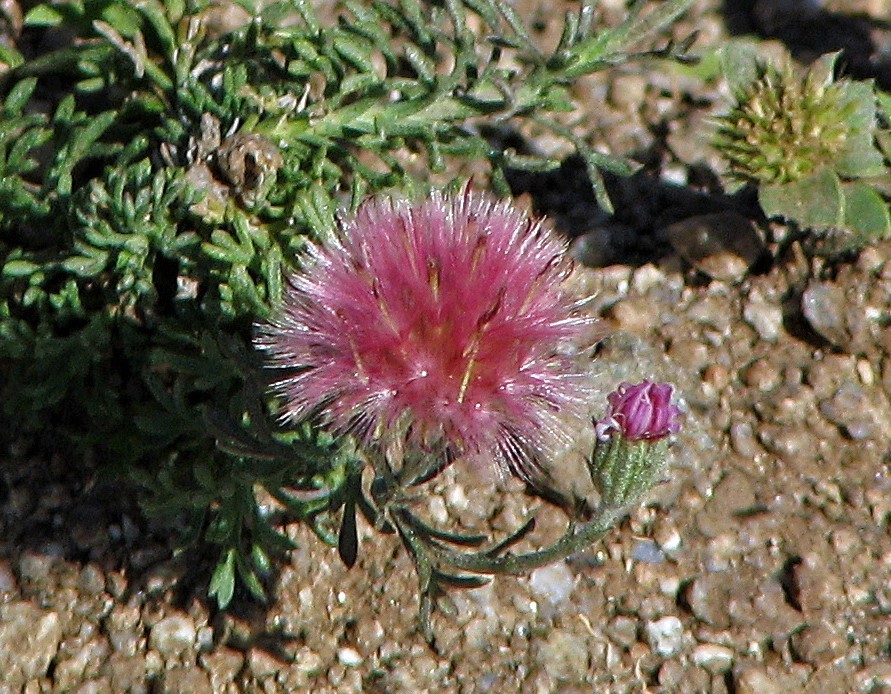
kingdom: Plantae
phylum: Tracheophyta
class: Magnoliopsida
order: Asterales
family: Asteraceae
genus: Microgyne
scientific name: Microgyne trifurcata
